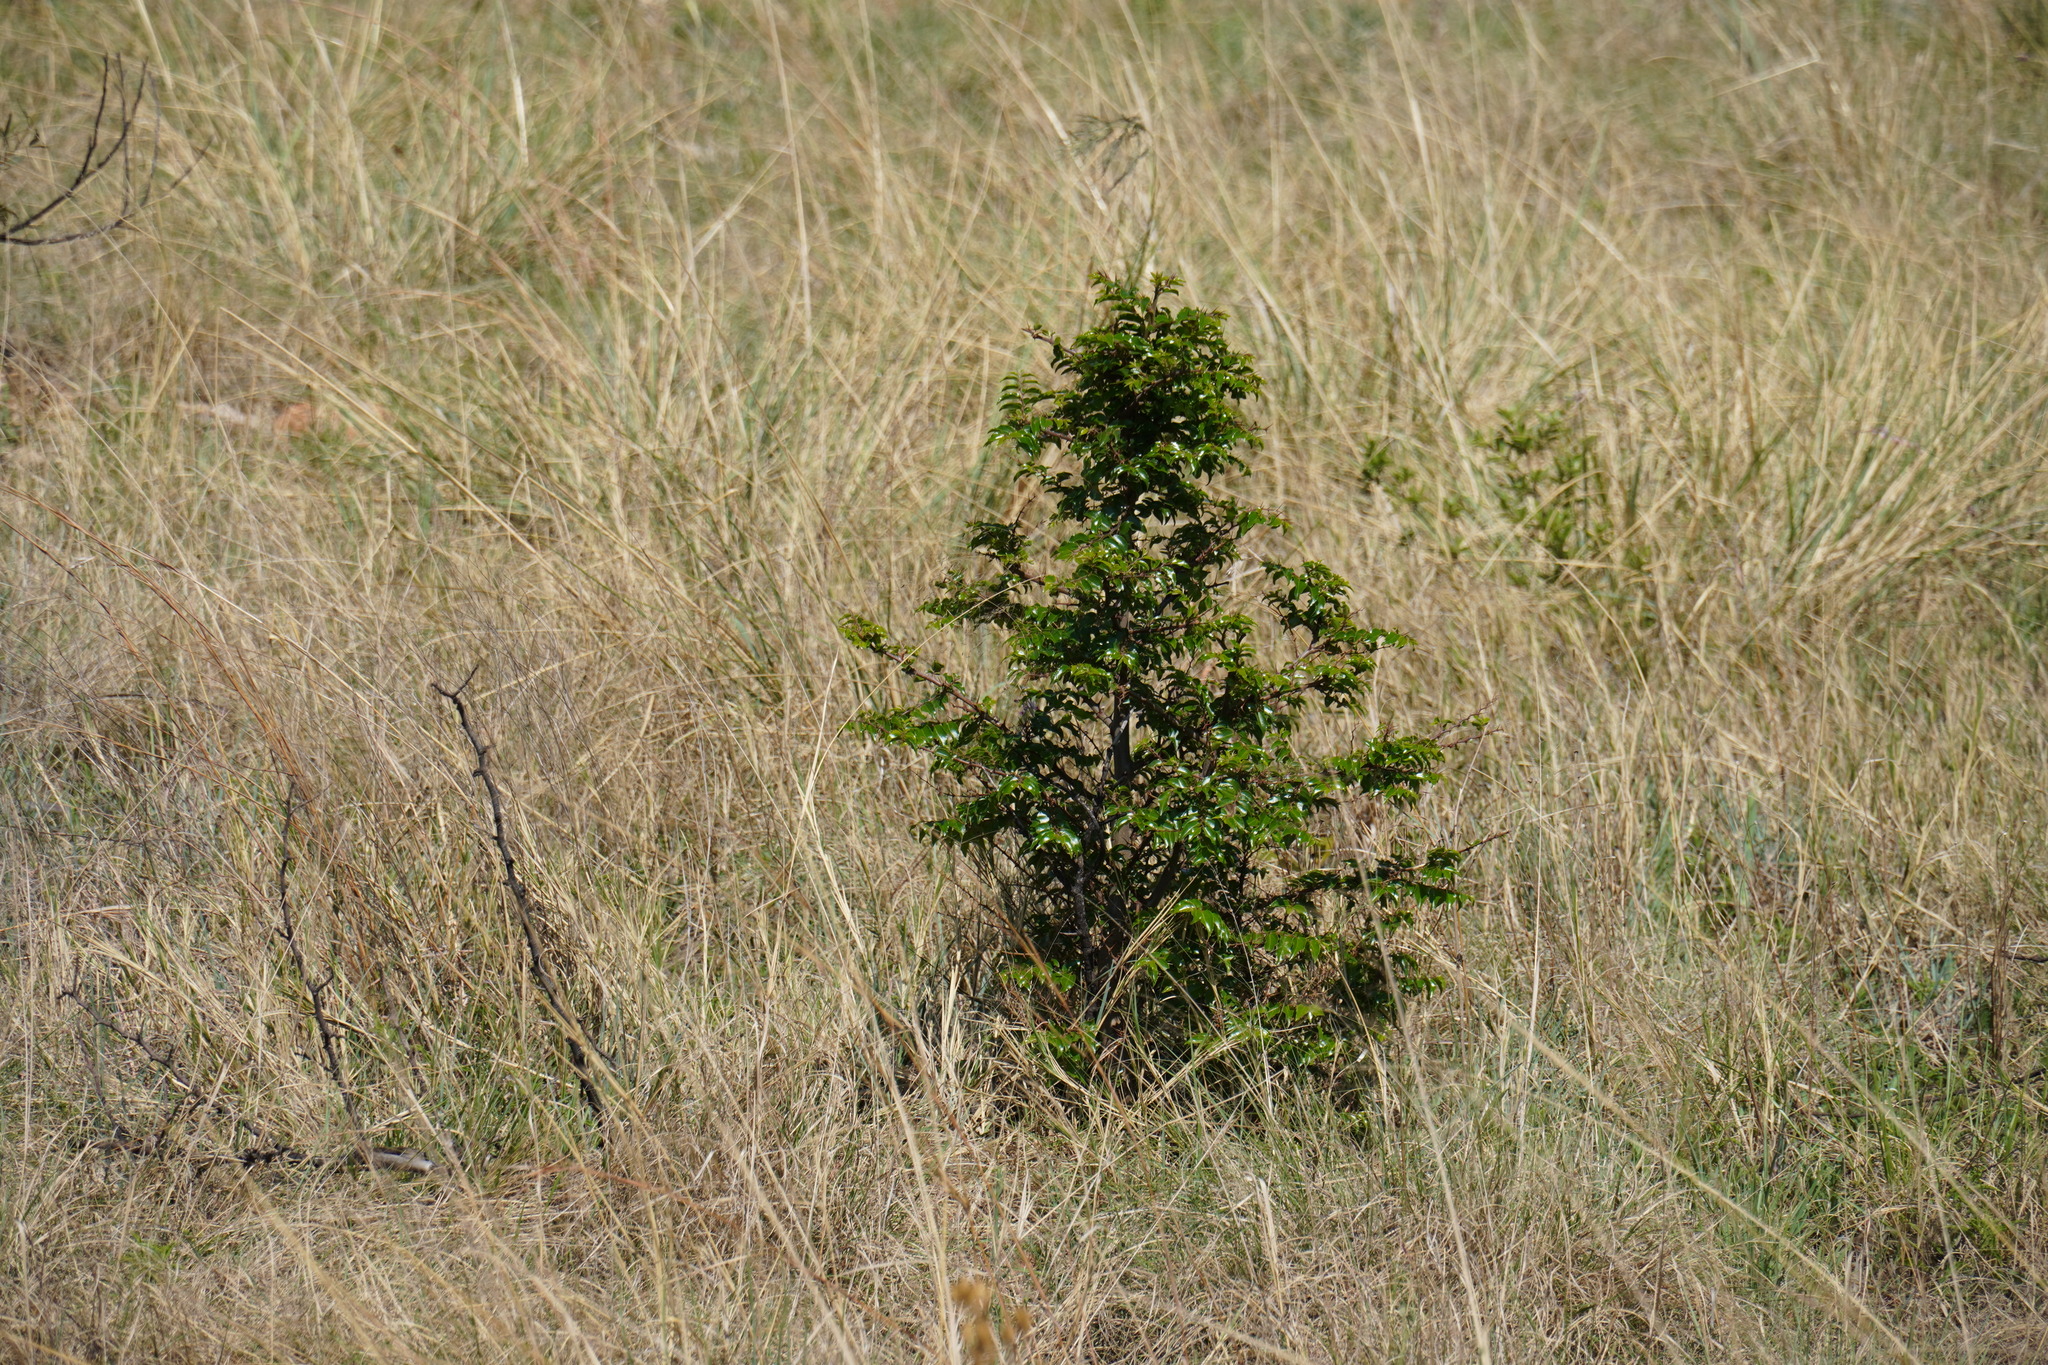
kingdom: Plantae
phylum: Tracheophyta
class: Magnoliopsida
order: Rosales
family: Rhamnaceae
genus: Ziziphus
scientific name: Ziziphus mucronata
